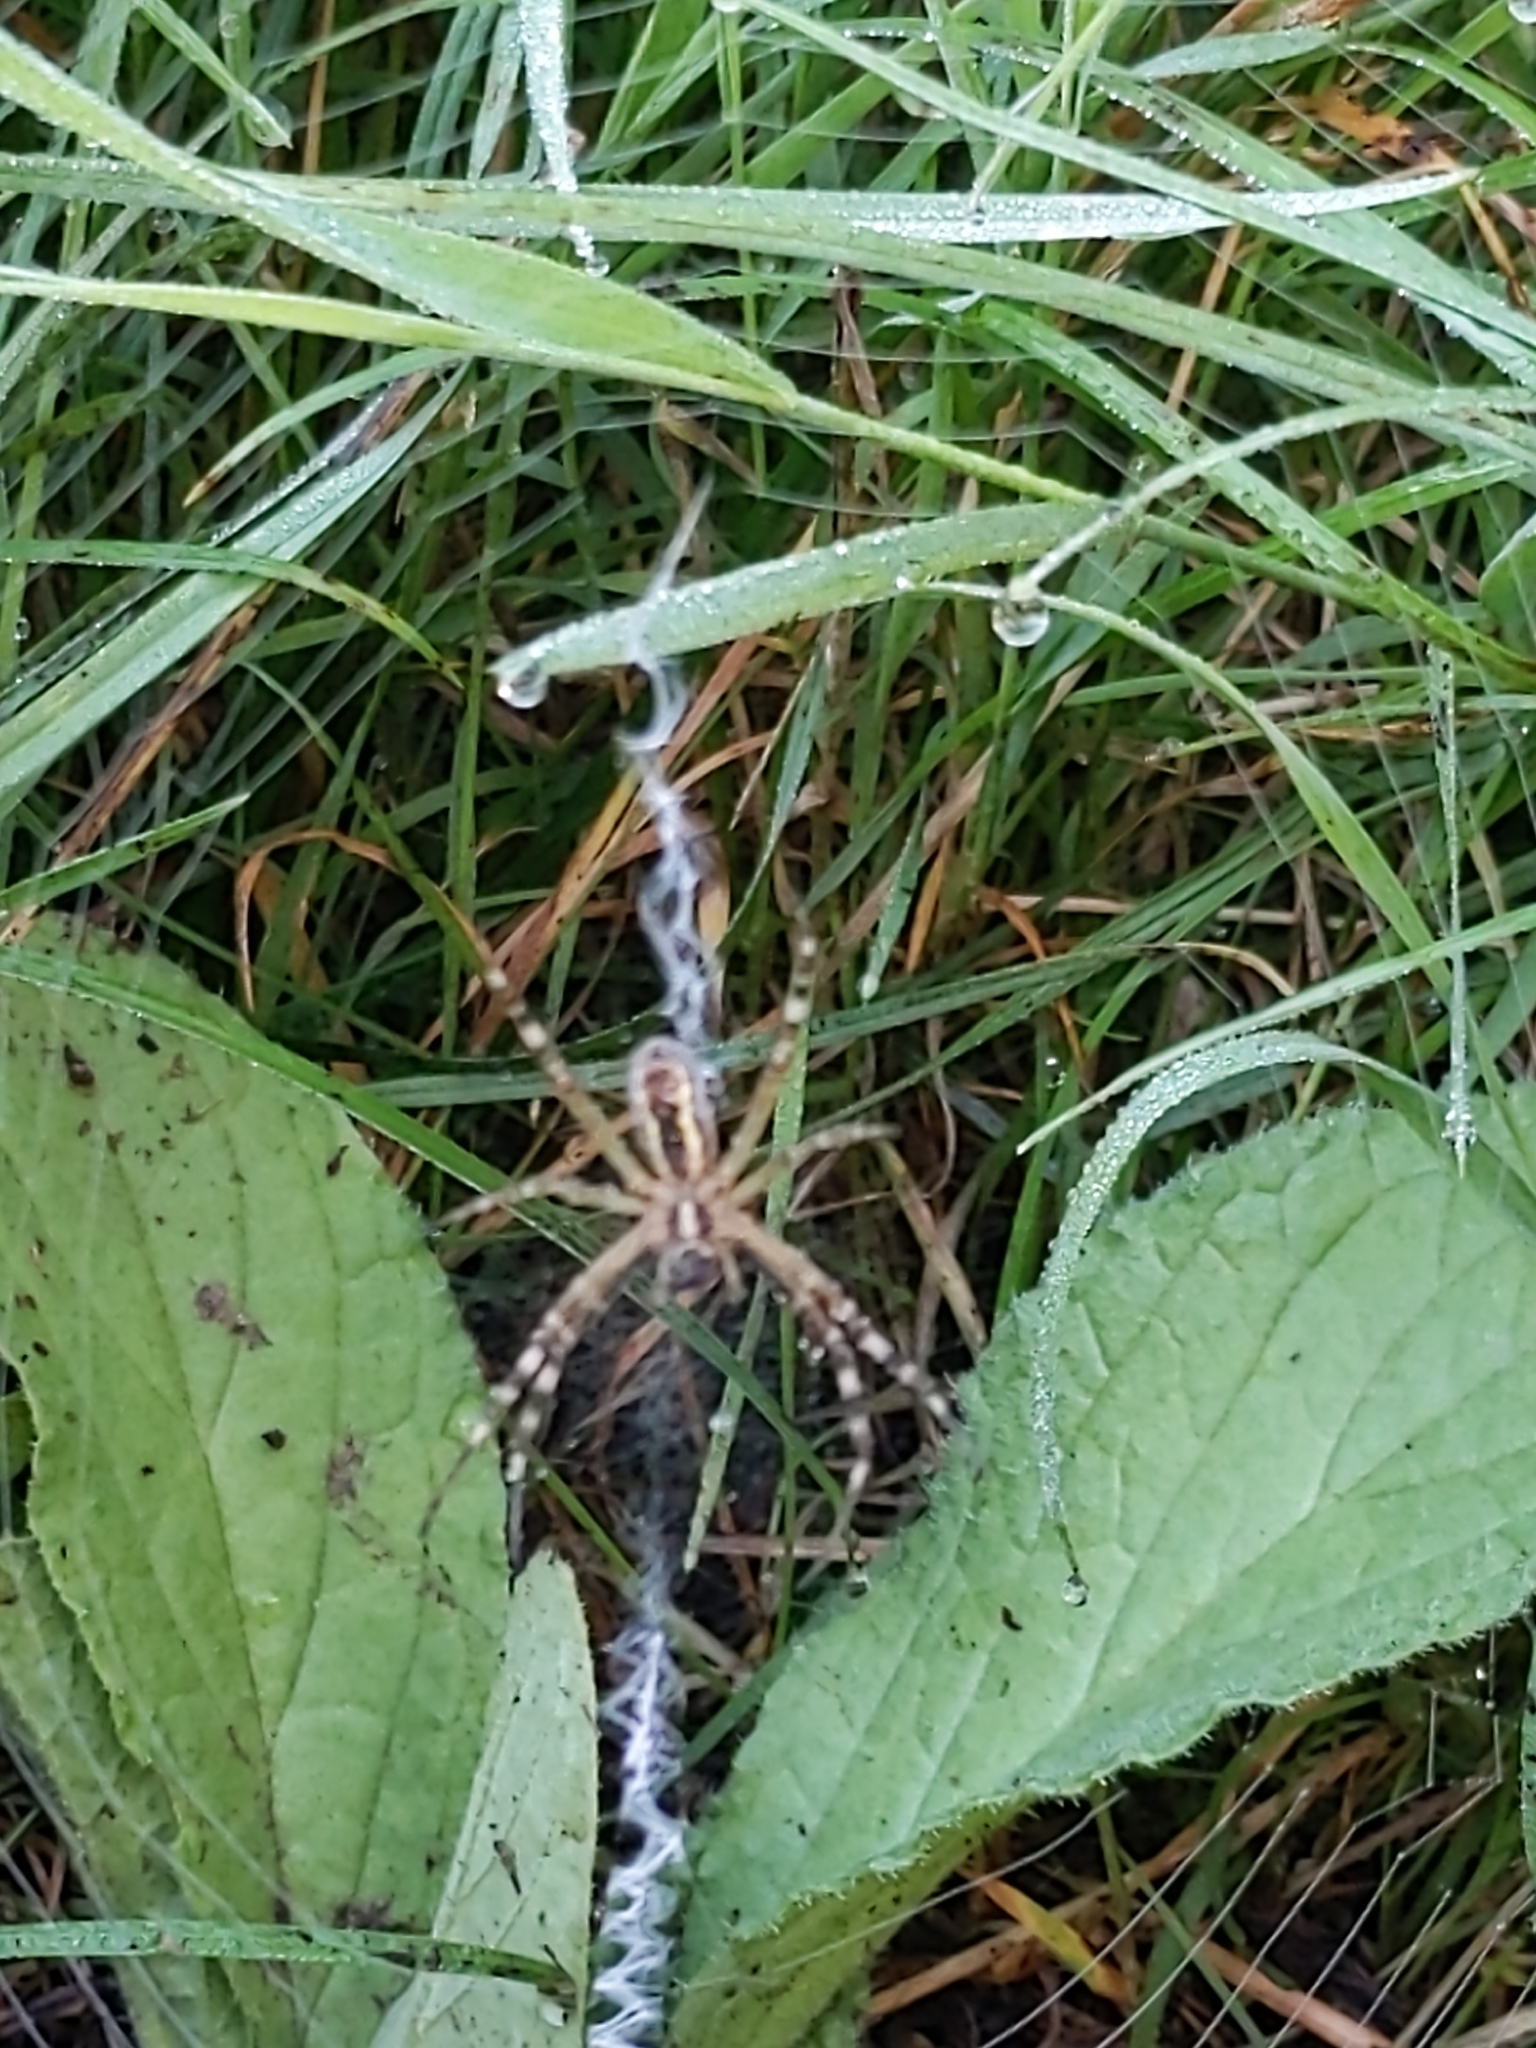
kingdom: Animalia
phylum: Arthropoda
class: Arachnida
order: Araneae
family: Araneidae
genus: Argiope
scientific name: Argiope bruennichi
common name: Wasp spider
